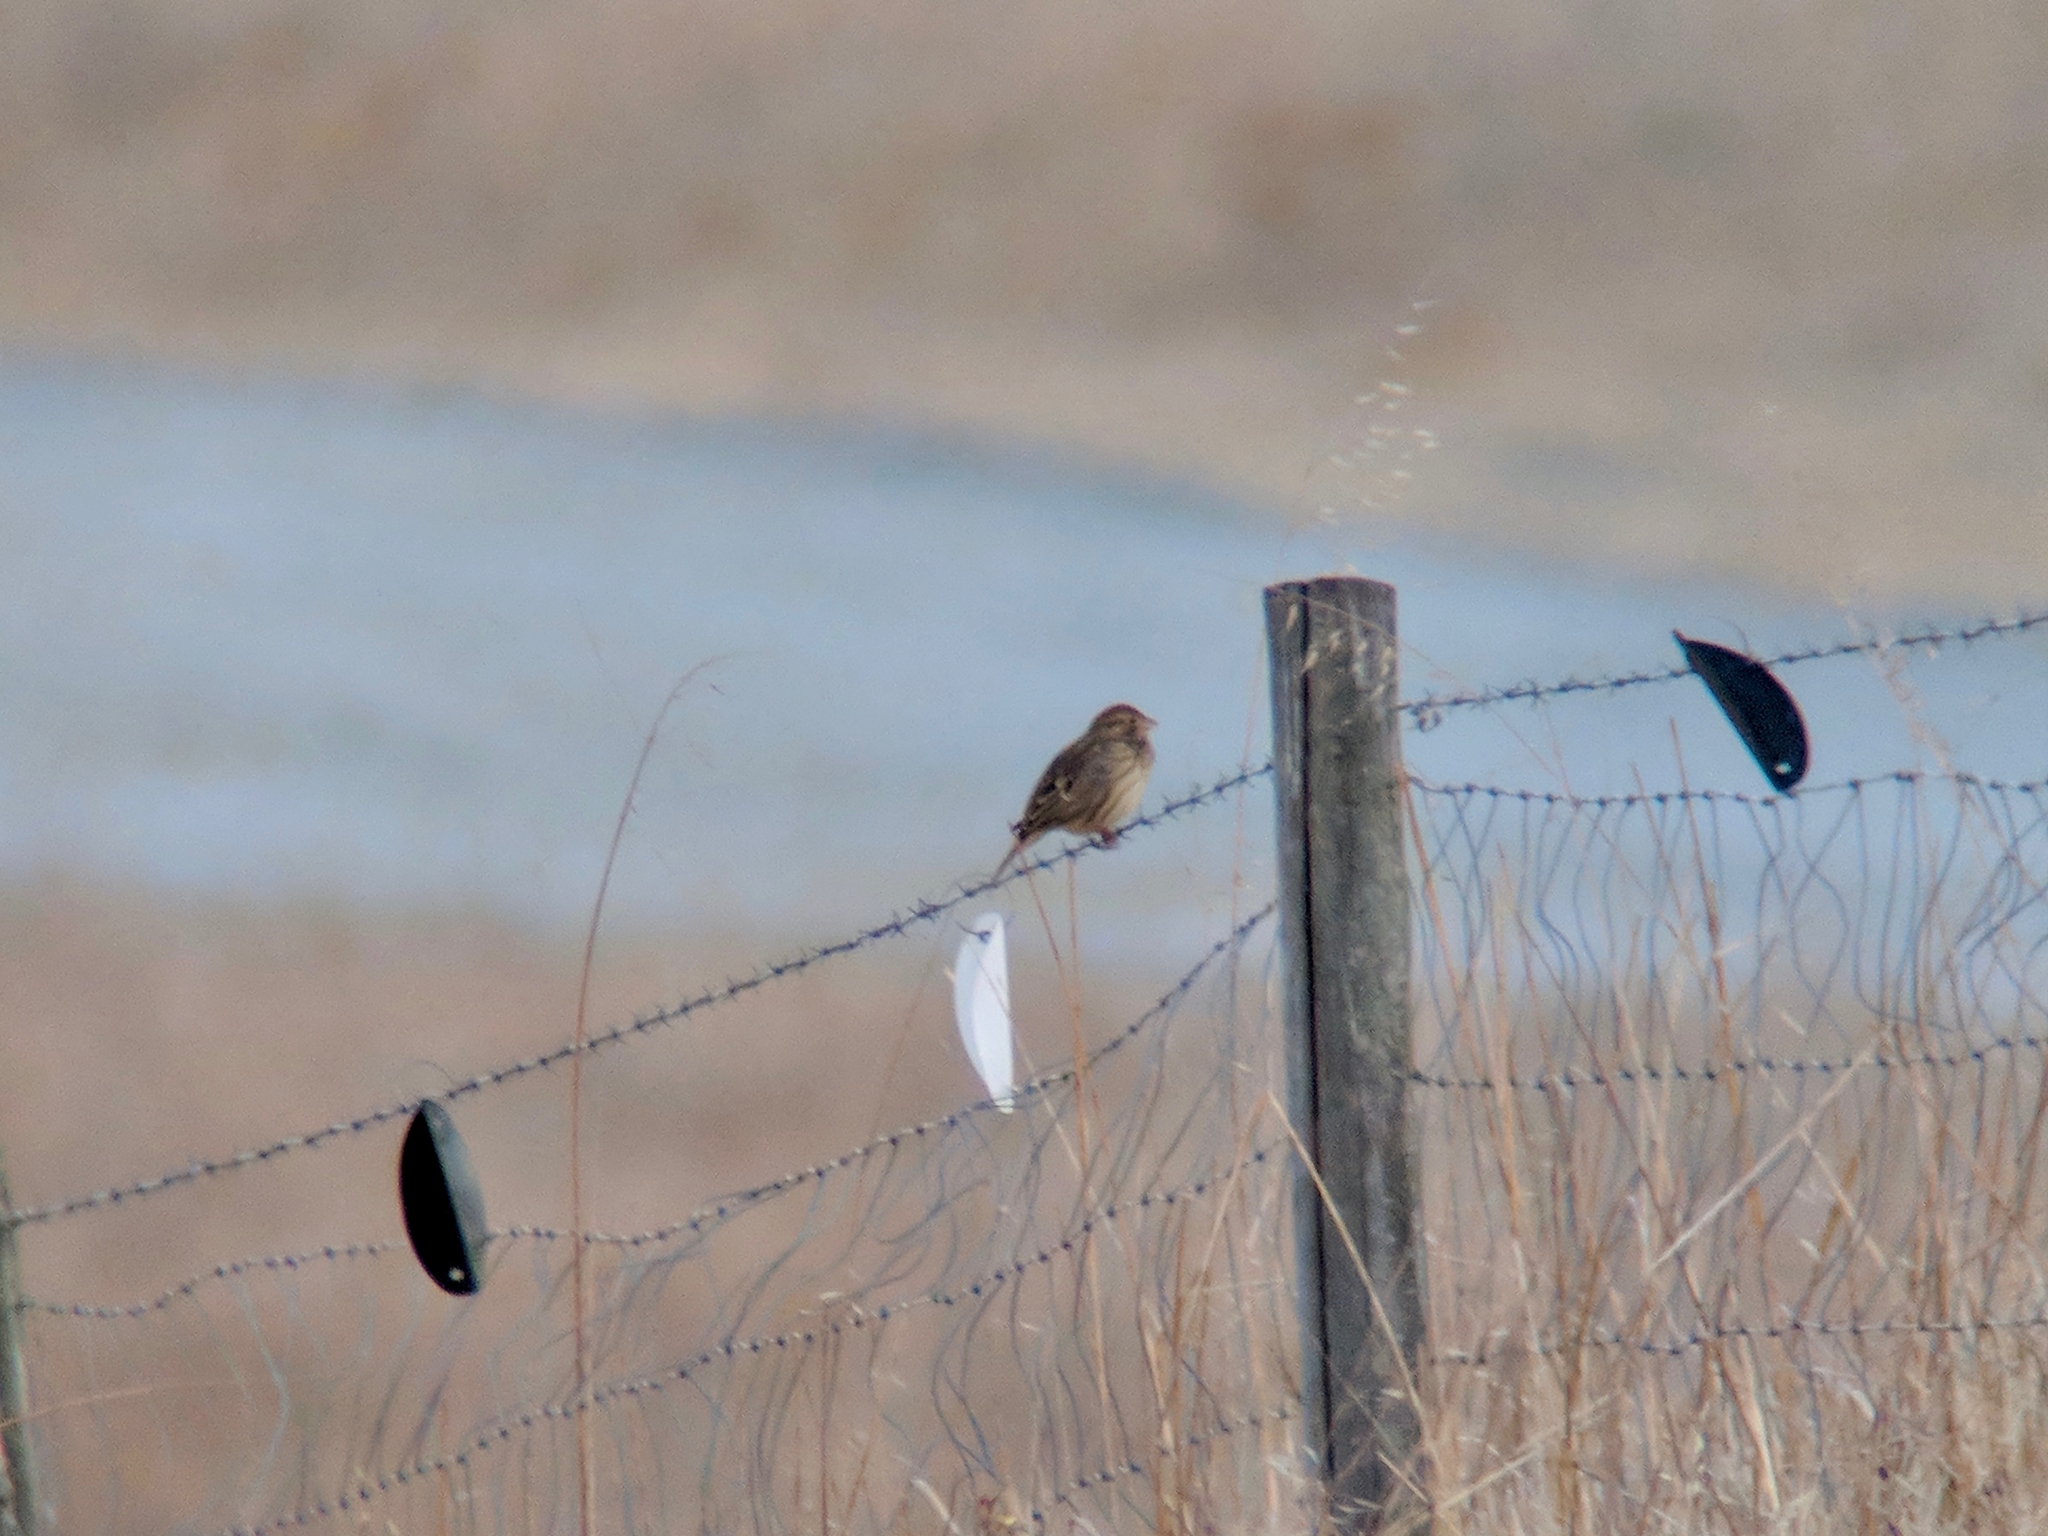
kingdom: Animalia
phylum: Chordata
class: Aves
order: Passeriformes
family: Emberizidae
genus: Emberiza
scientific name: Emberiza calandra
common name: Corn bunting
